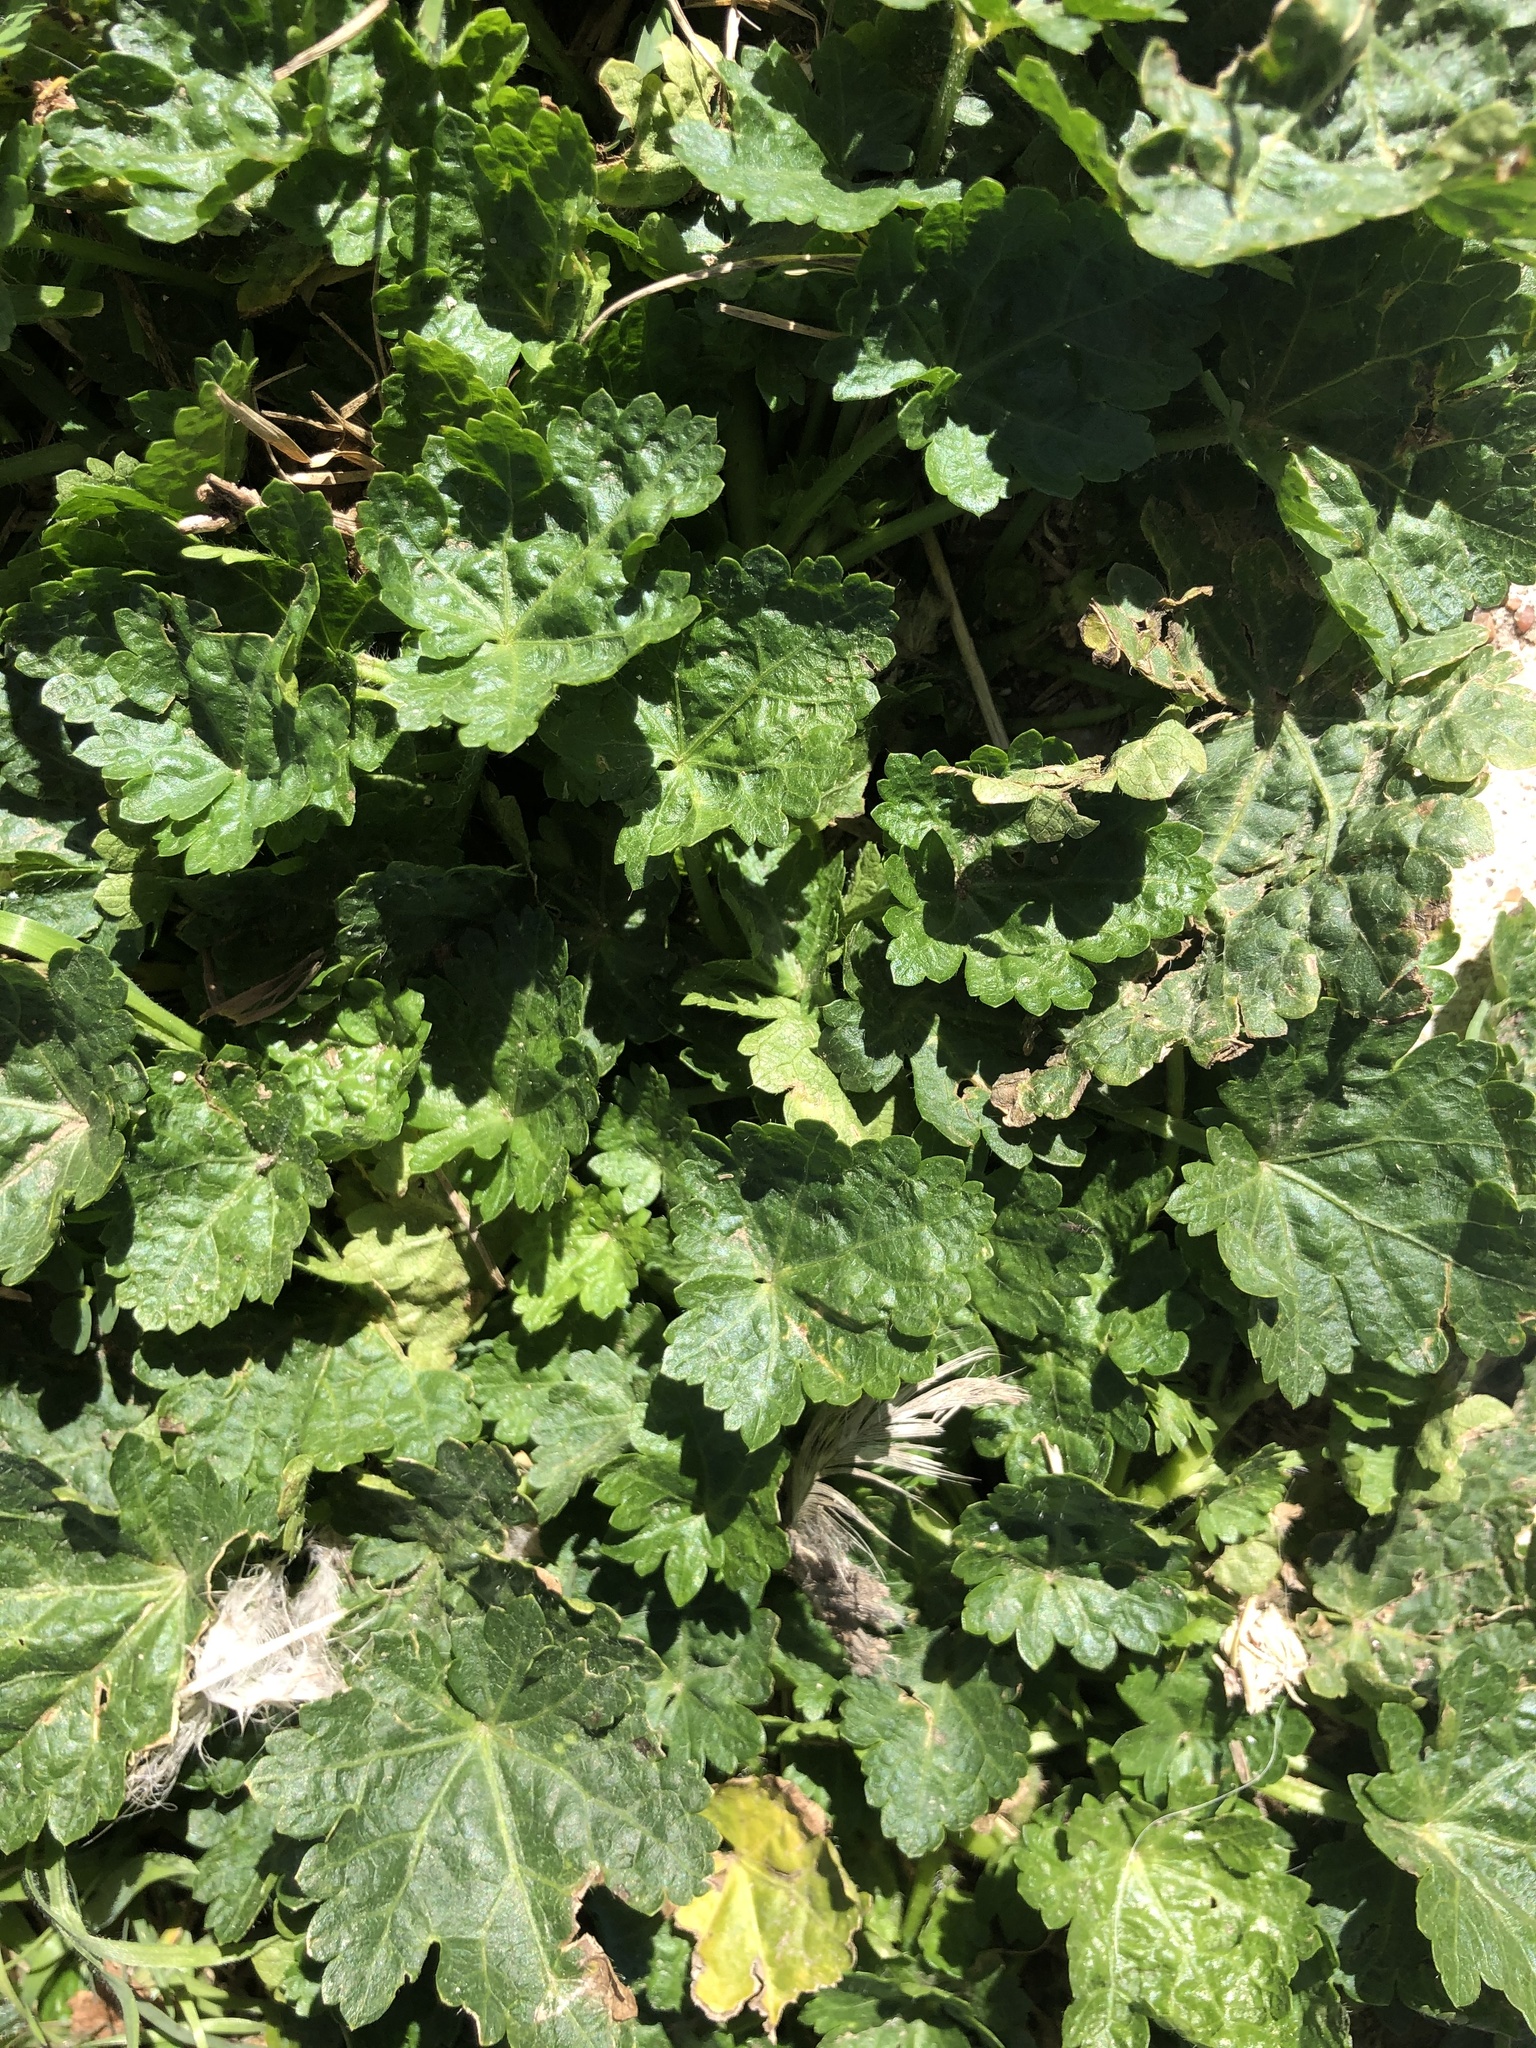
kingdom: Plantae
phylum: Tracheophyta
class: Magnoliopsida
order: Malvales
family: Malvaceae
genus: Modiola
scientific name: Modiola caroliniana
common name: Carolina bristlemallow
